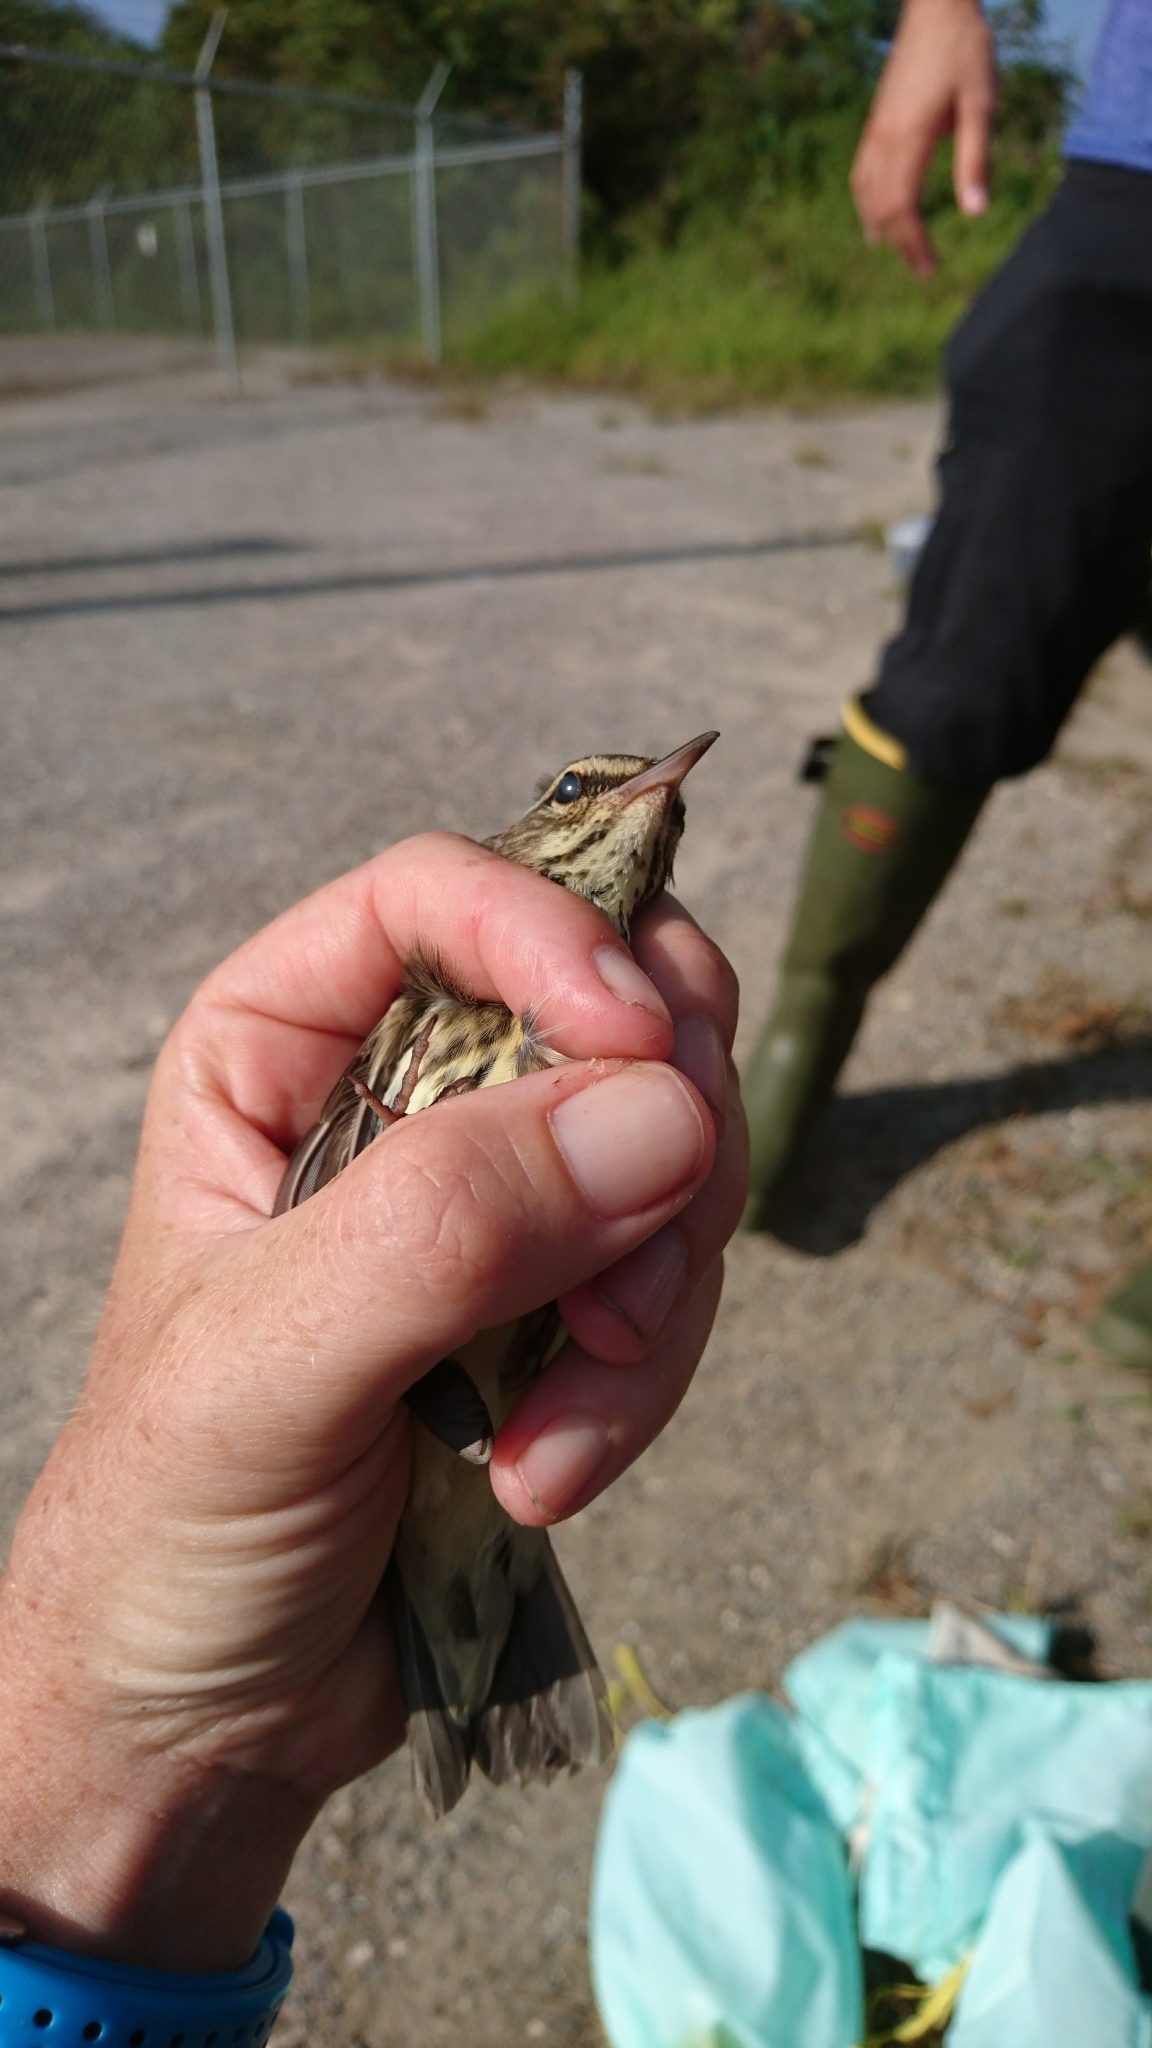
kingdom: Animalia
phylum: Chordata
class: Aves
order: Passeriformes
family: Parulidae
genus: Parkesia
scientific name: Parkesia noveboracensis
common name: Northern waterthrush
